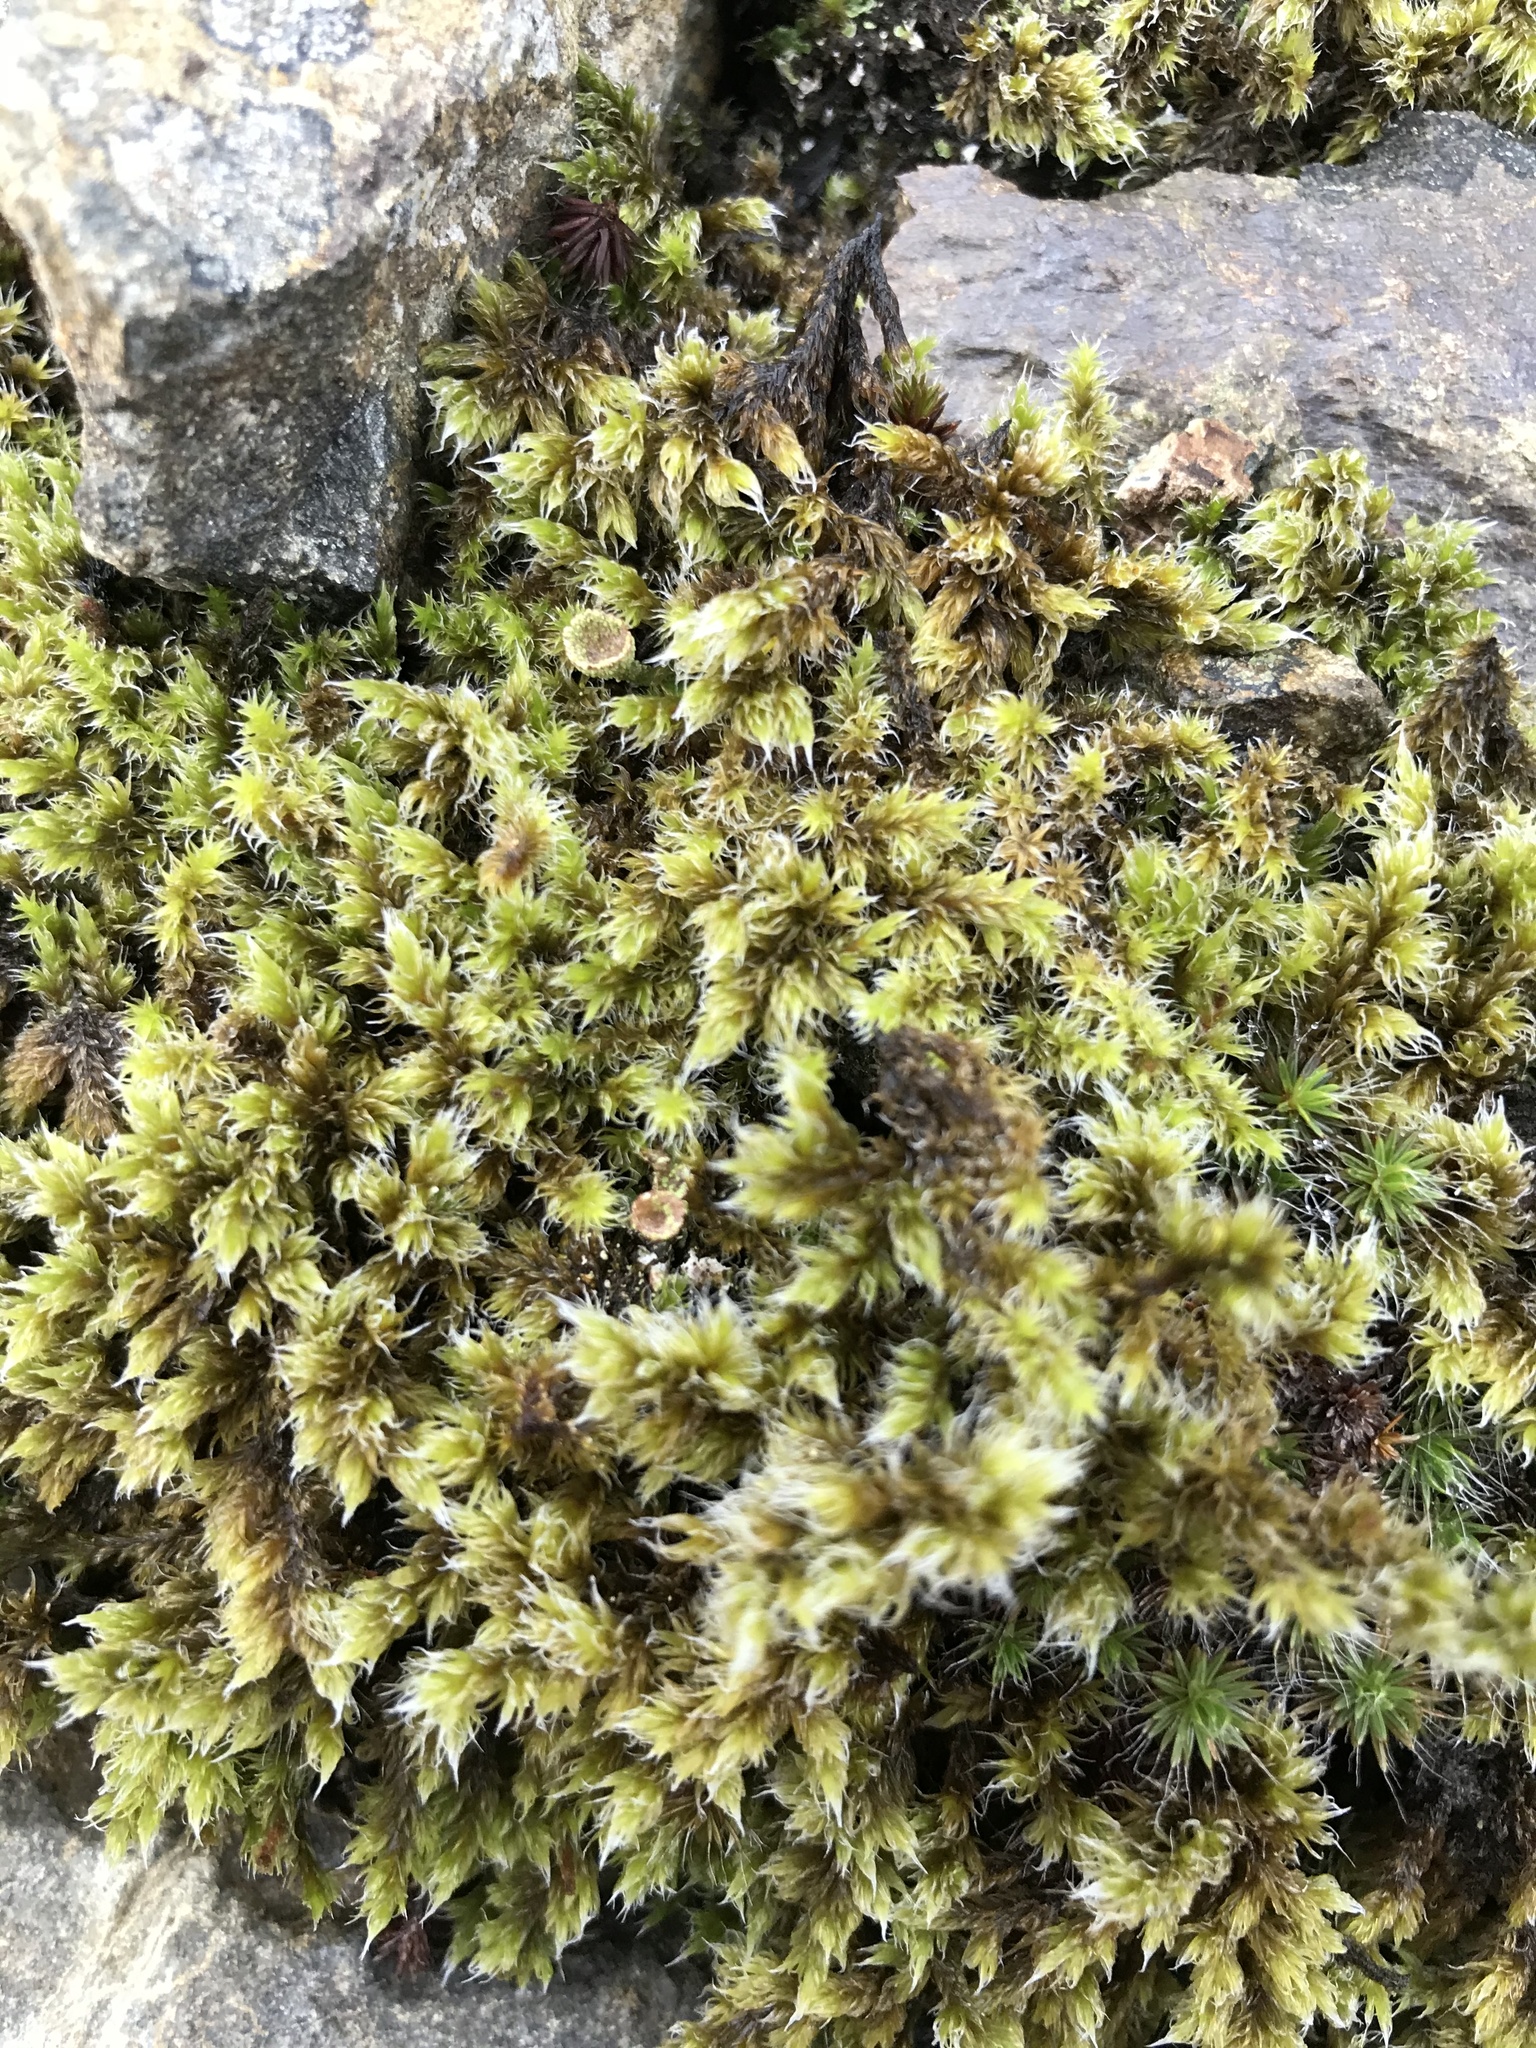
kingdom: Plantae
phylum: Bryophyta
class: Bryopsida
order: Grimmiales
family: Grimmiaceae
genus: Racomitrium
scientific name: Racomitrium lanuginosum
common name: Hoary rock moss
